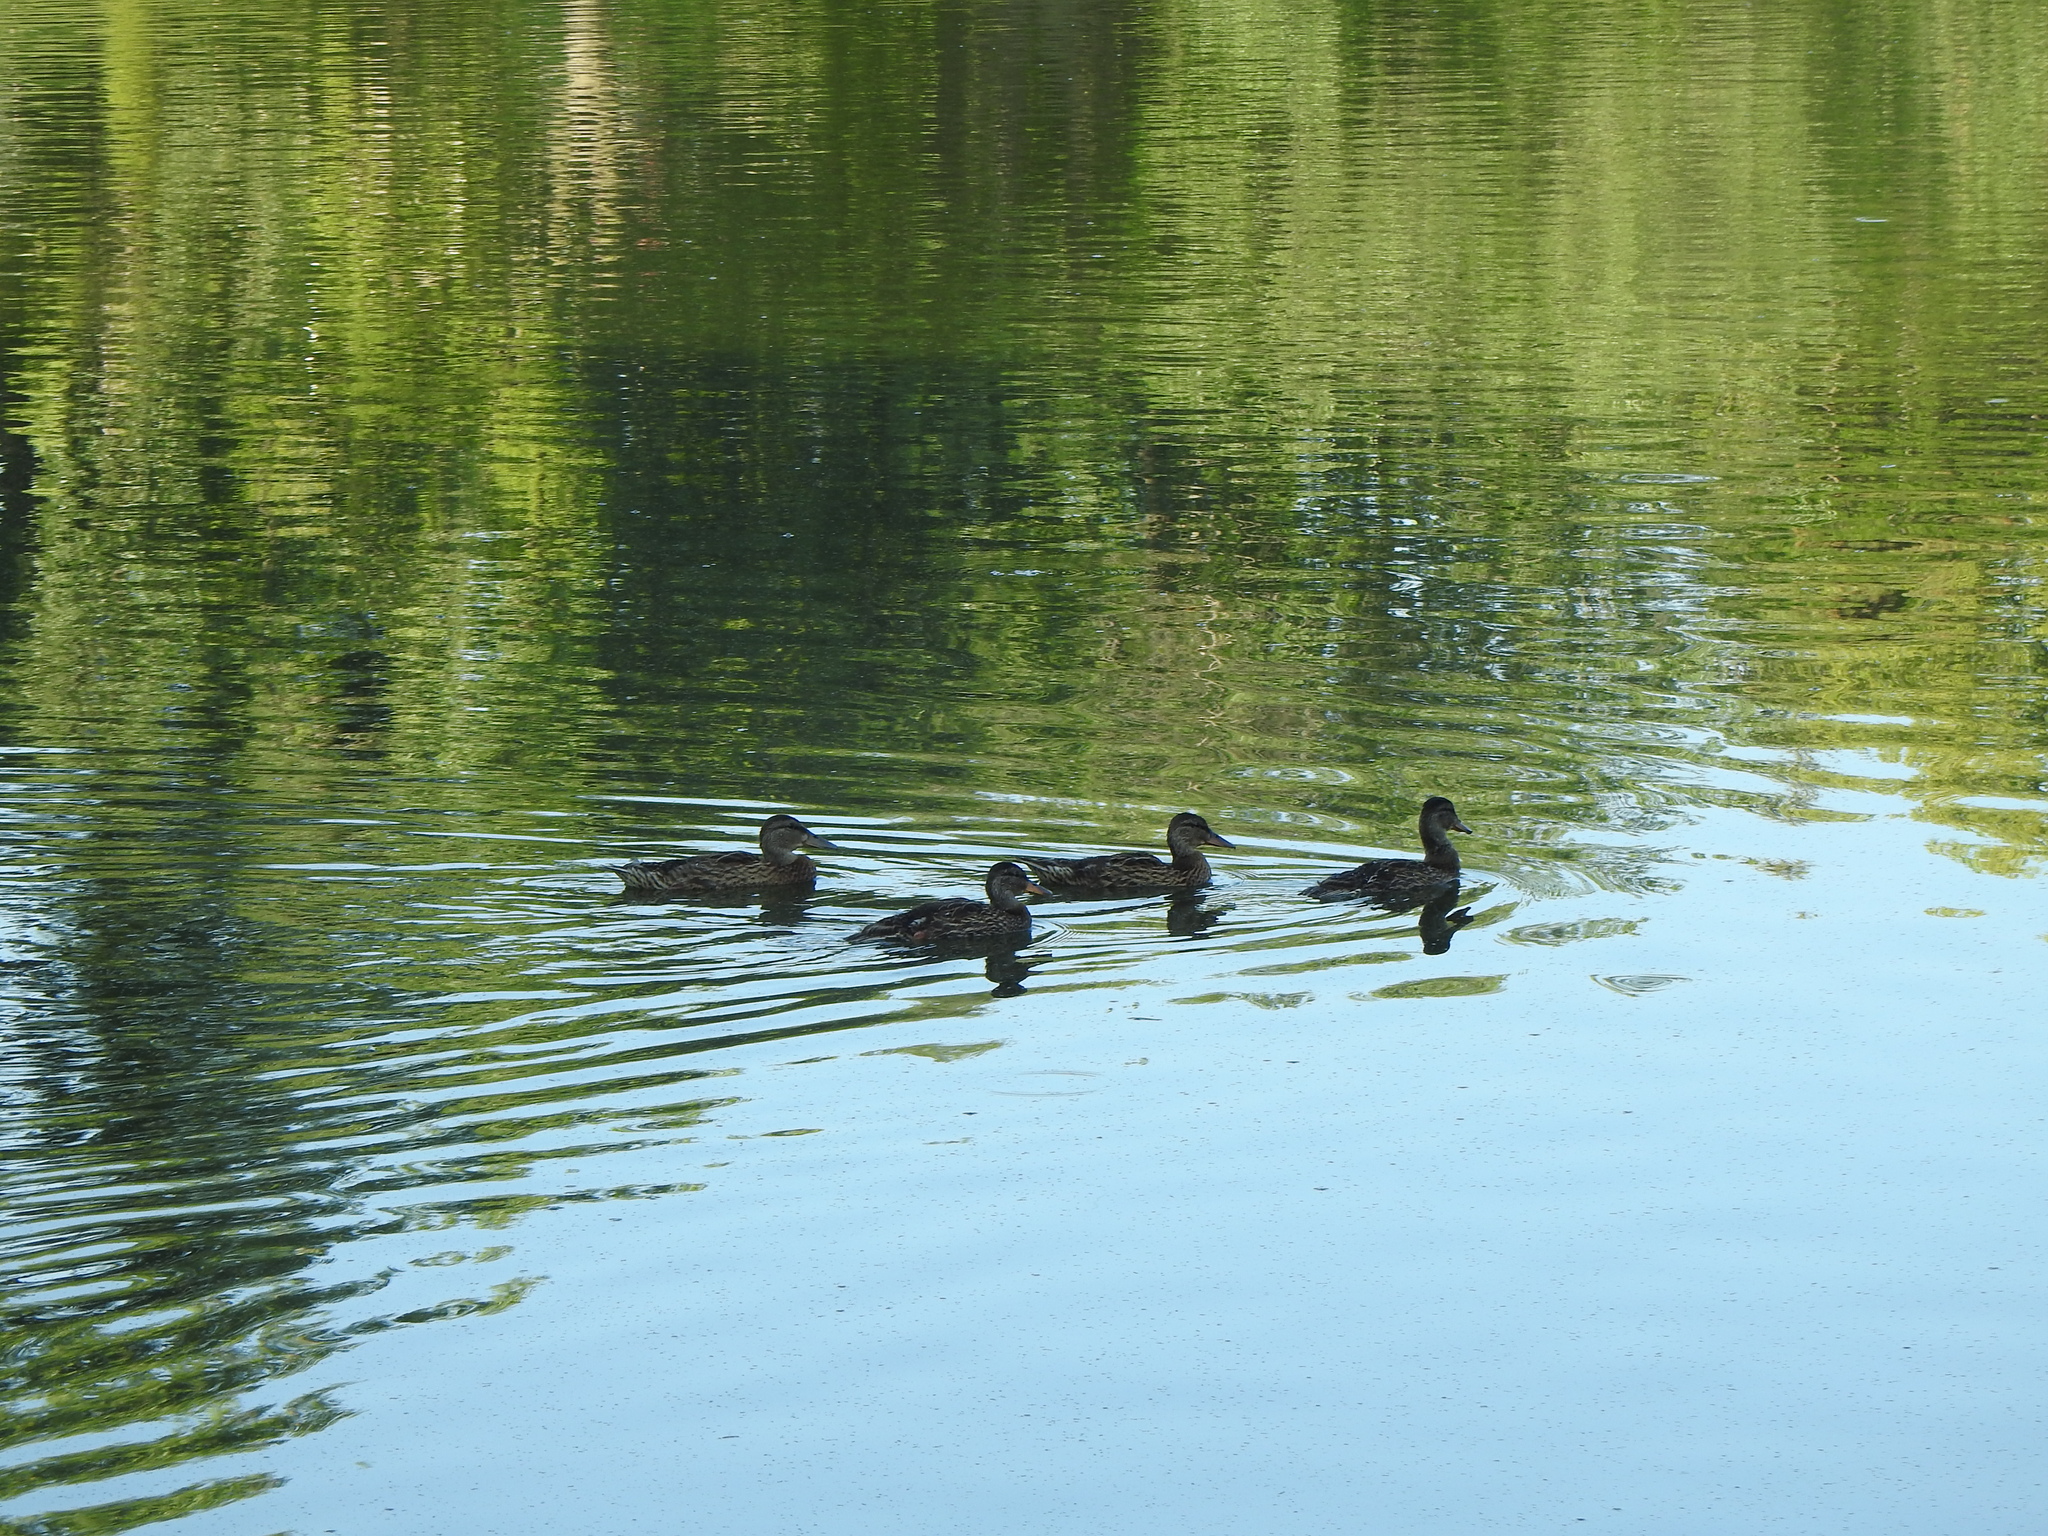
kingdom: Animalia
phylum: Chordata
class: Aves
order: Anseriformes
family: Anatidae
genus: Anas
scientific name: Anas platyrhynchos
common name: Mallard
